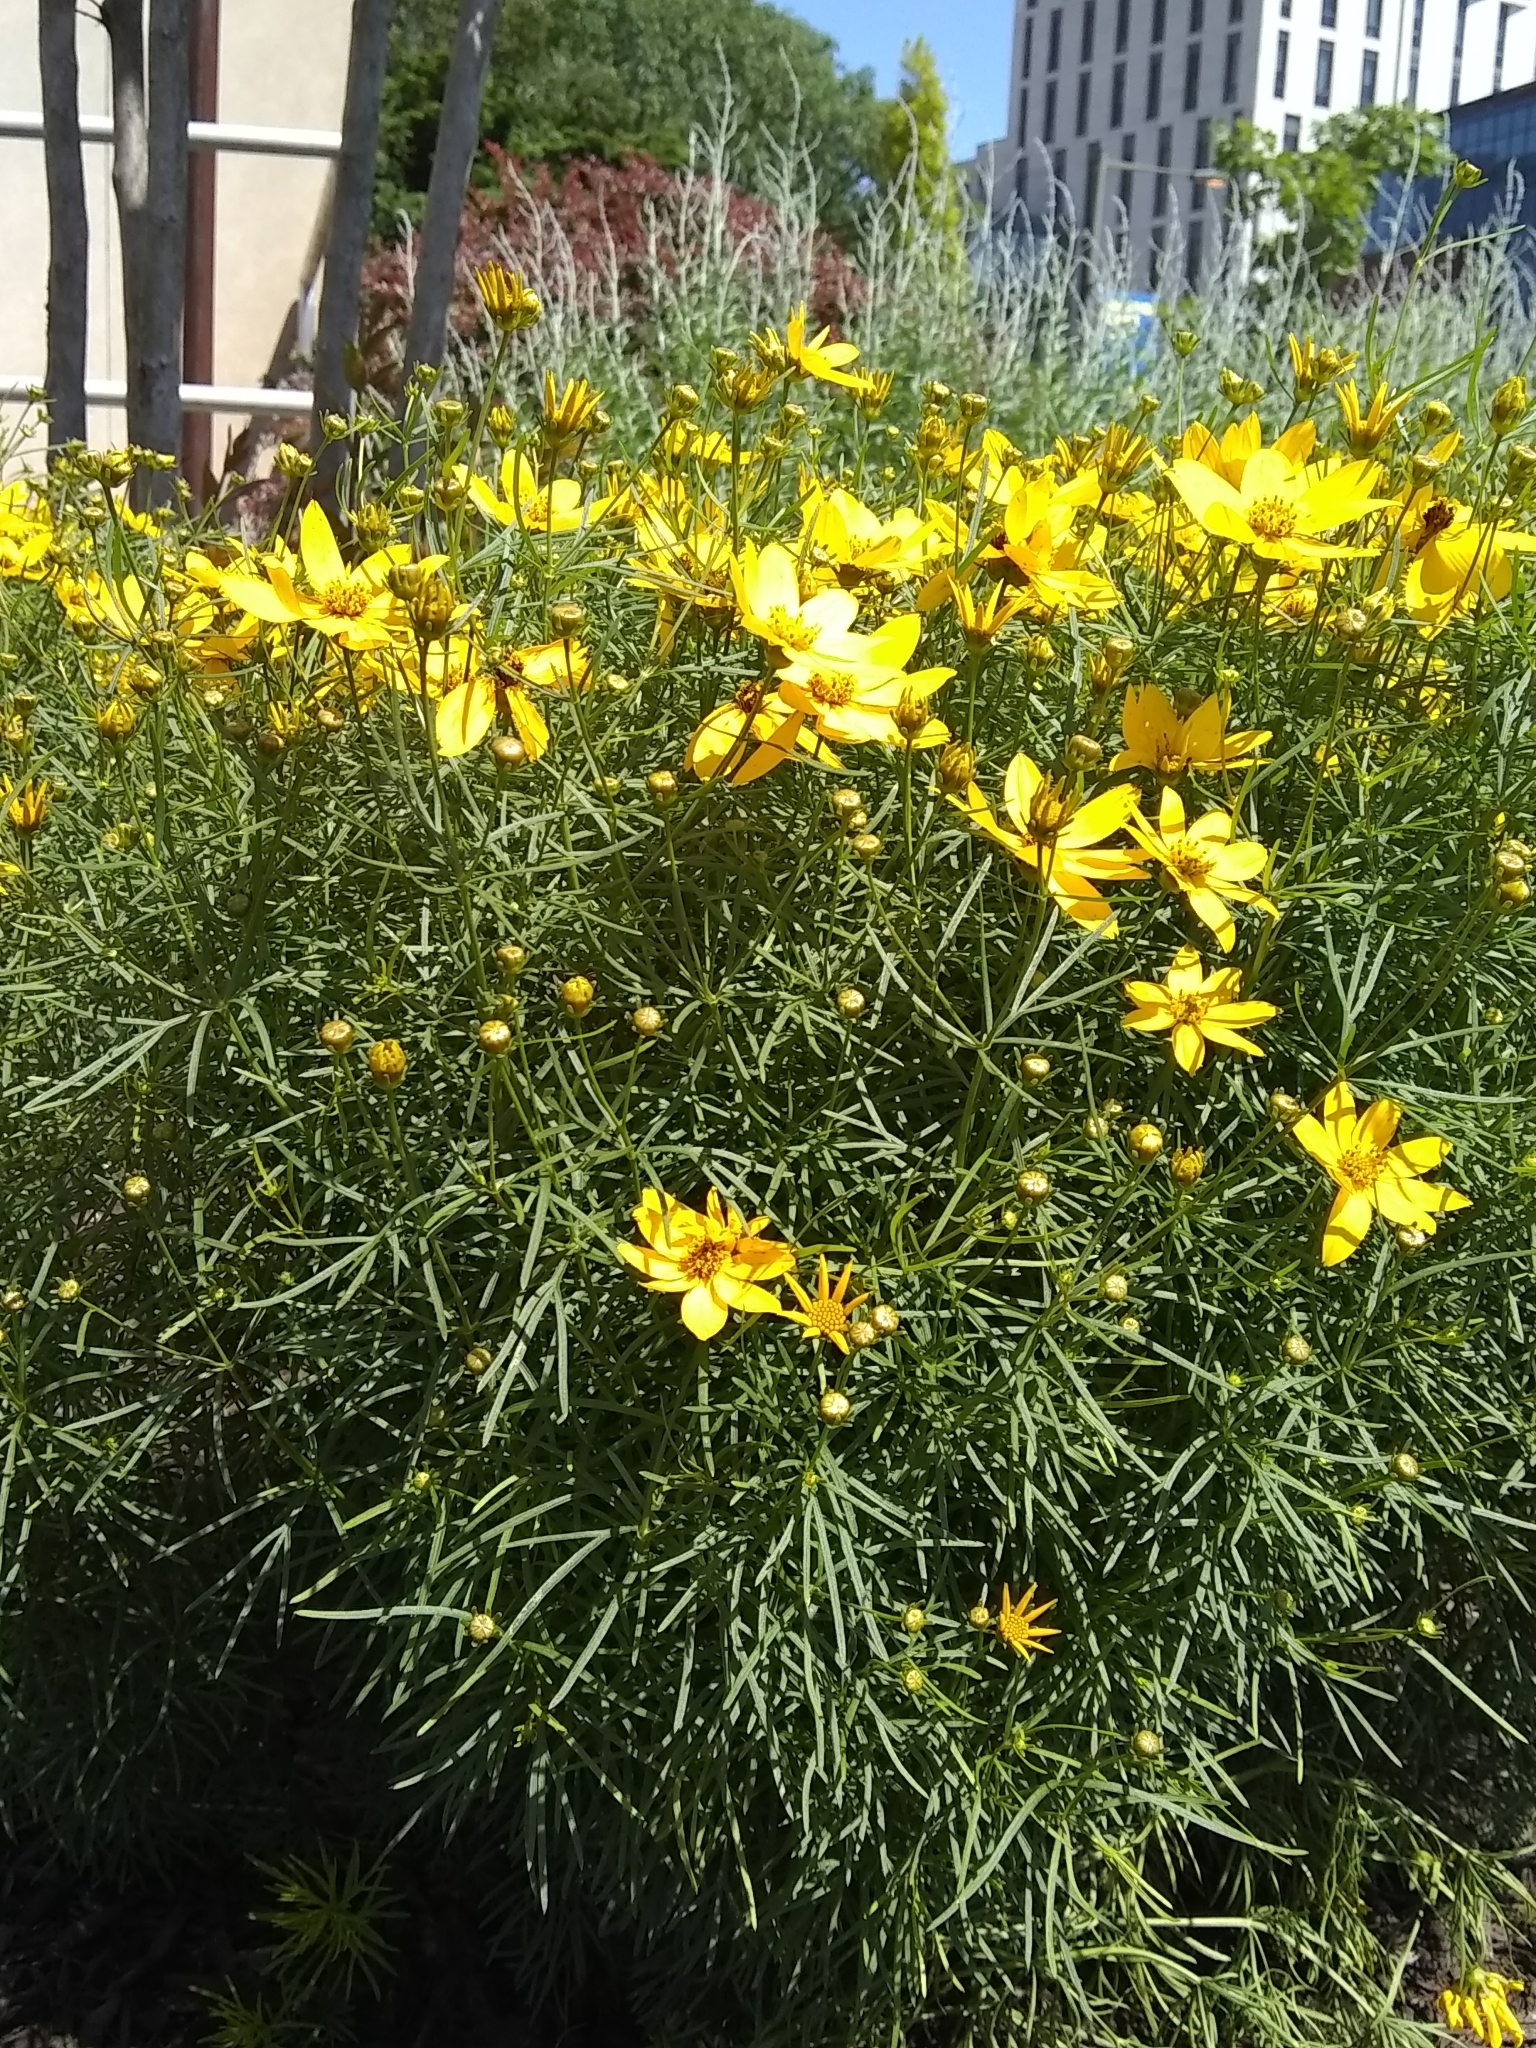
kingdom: Plantae
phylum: Tracheophyta
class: Magnoliopsida
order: Asterales
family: Asteraceae
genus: Coreopsis
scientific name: Coreopsis verticillata
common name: Whorled tickseed
